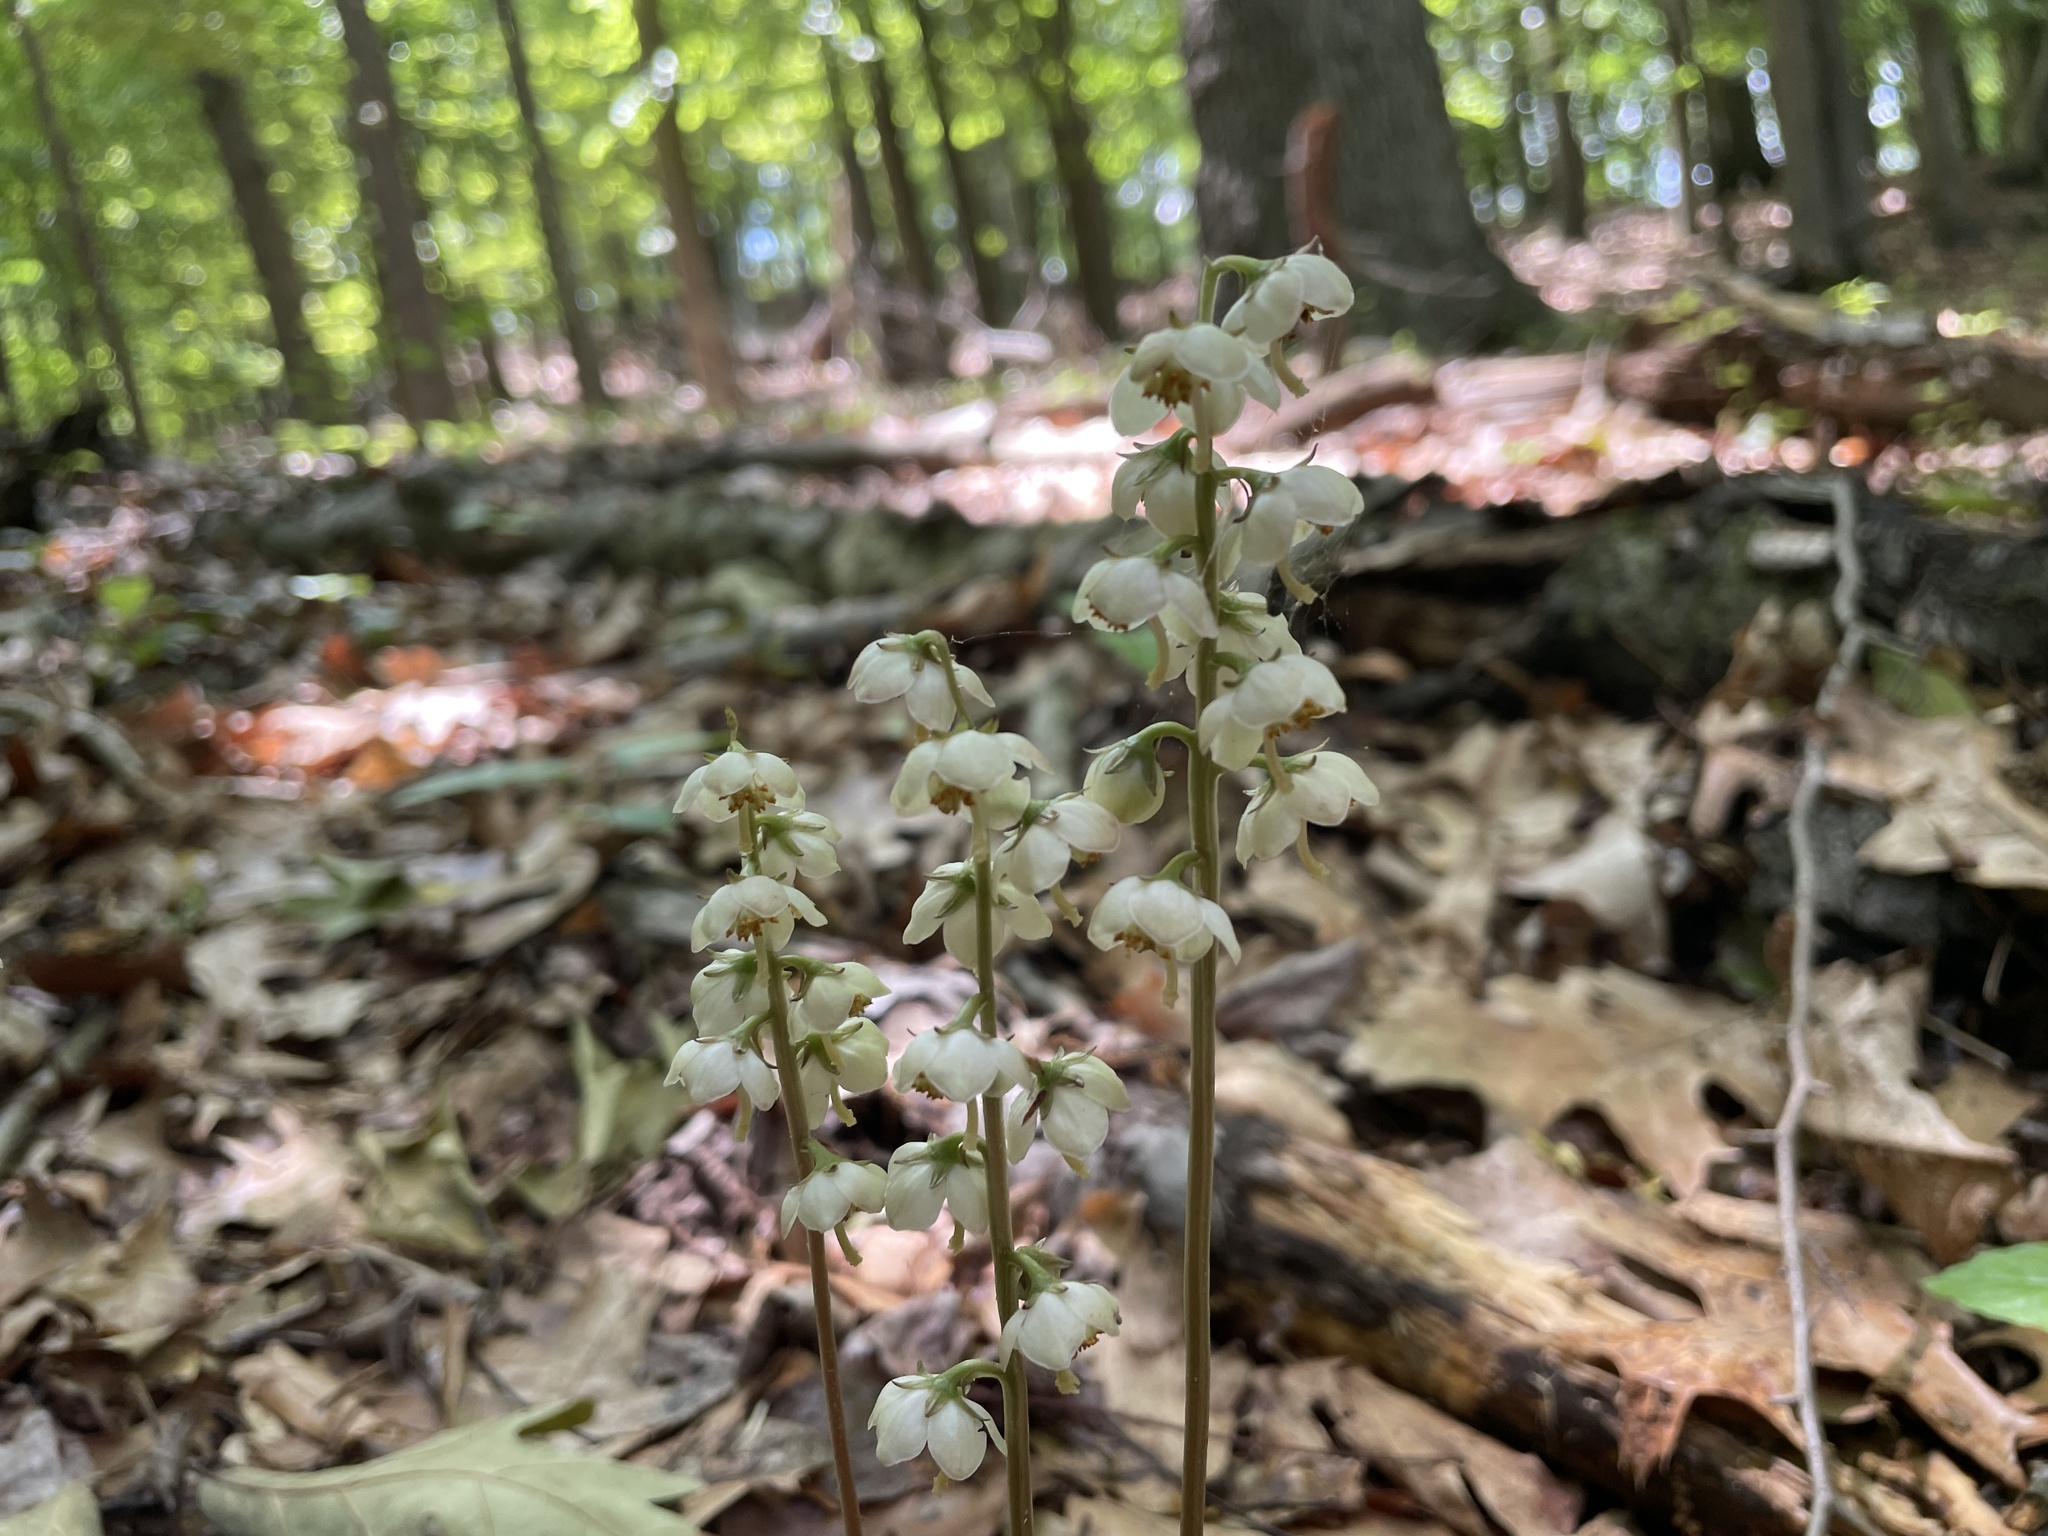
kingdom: Plantae
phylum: Tracheophyta
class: Magnoliopsida
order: Ericales
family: Ericaceae
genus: Pyrola
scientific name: Pyrola americana
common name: American wintergreen
